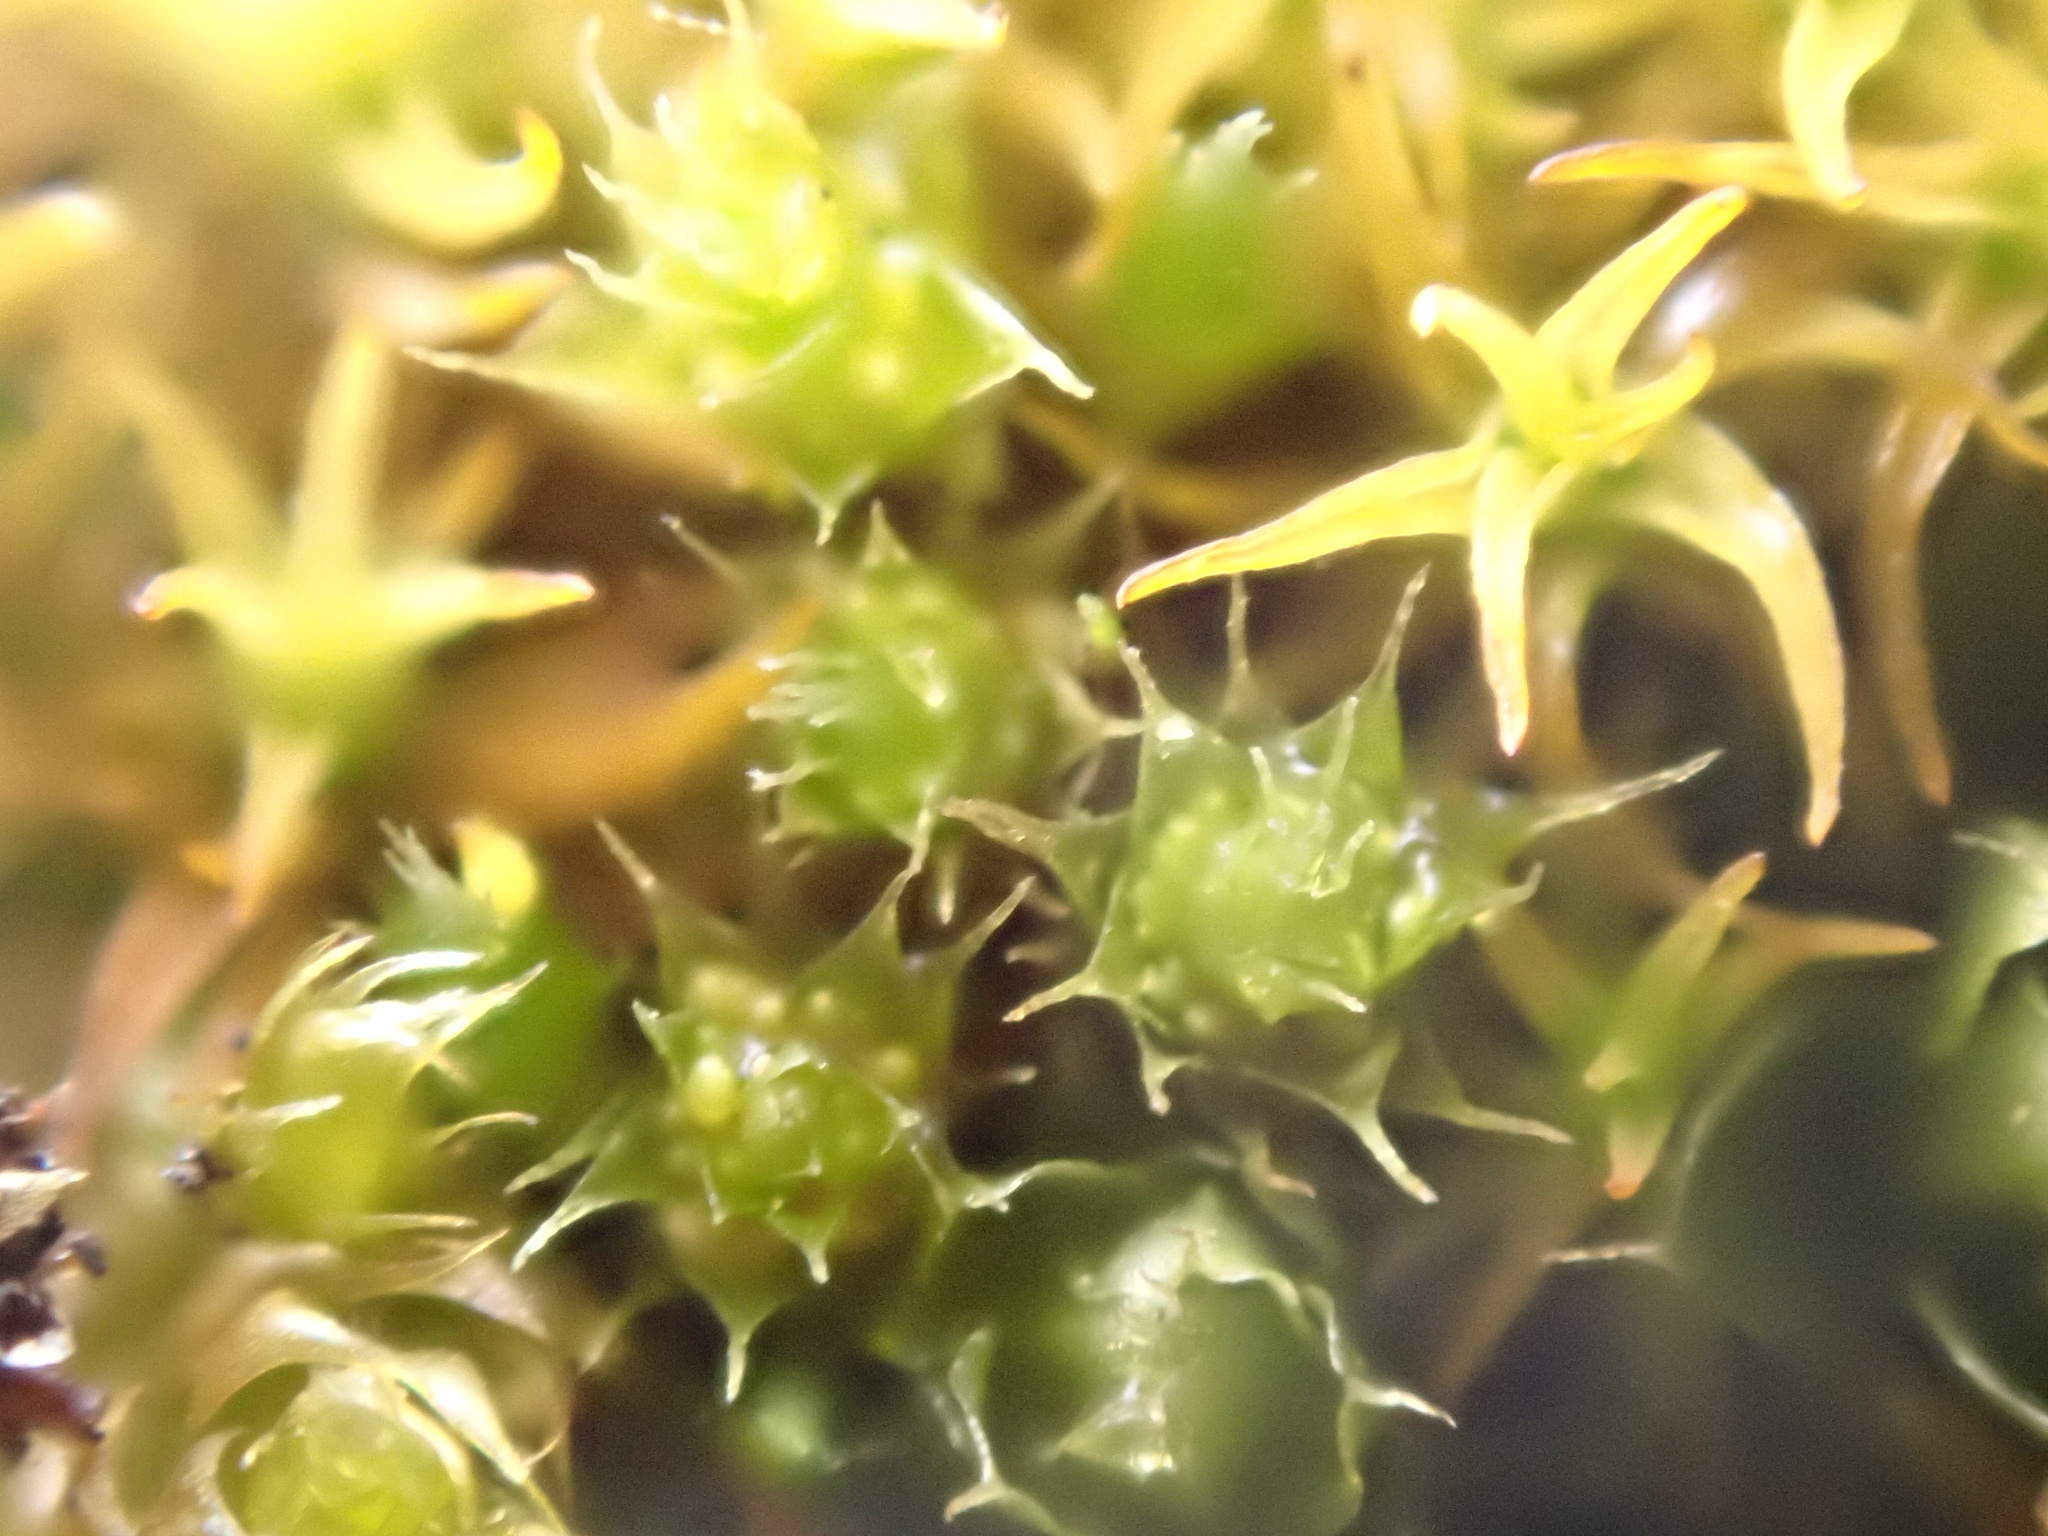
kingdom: Plantae
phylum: Bryophyta
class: Bryopsida
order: Bryales
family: Bryaceae
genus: Gemmabryum
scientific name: Gemmabryum
